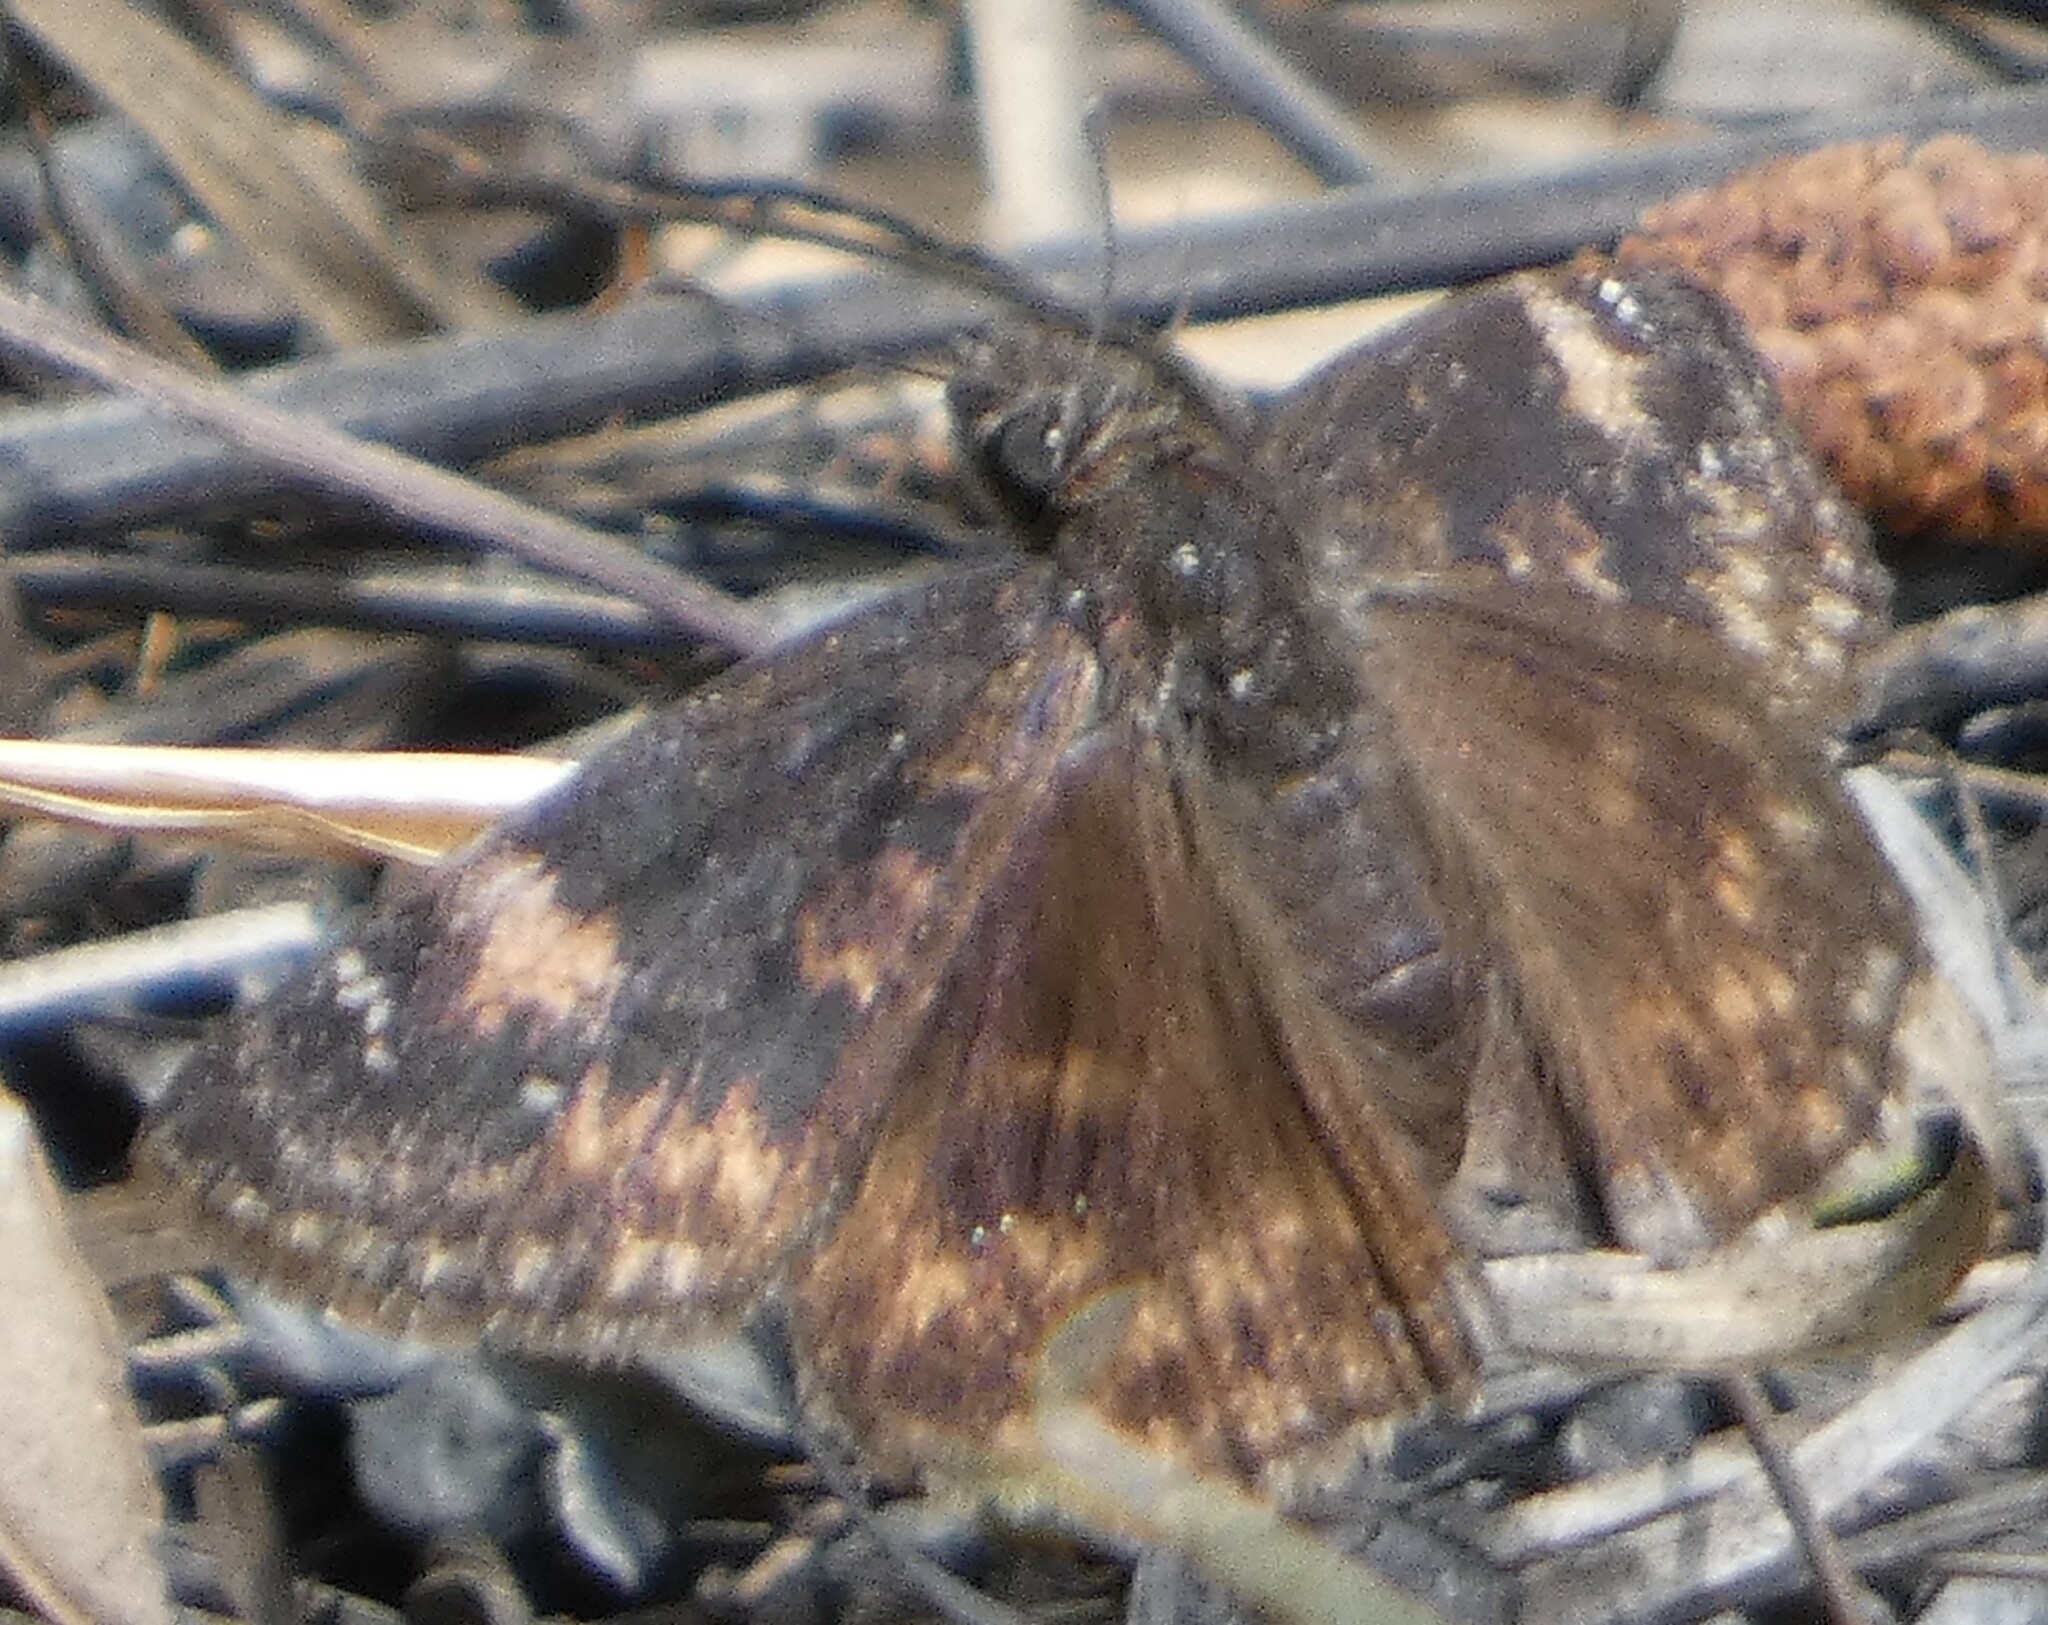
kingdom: Animalia
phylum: Arthropoda
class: Insecta
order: Lepidoptera
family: Hesperiidae
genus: Erynnis
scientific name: Erynnis zarucco
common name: Zarucco duskywing
